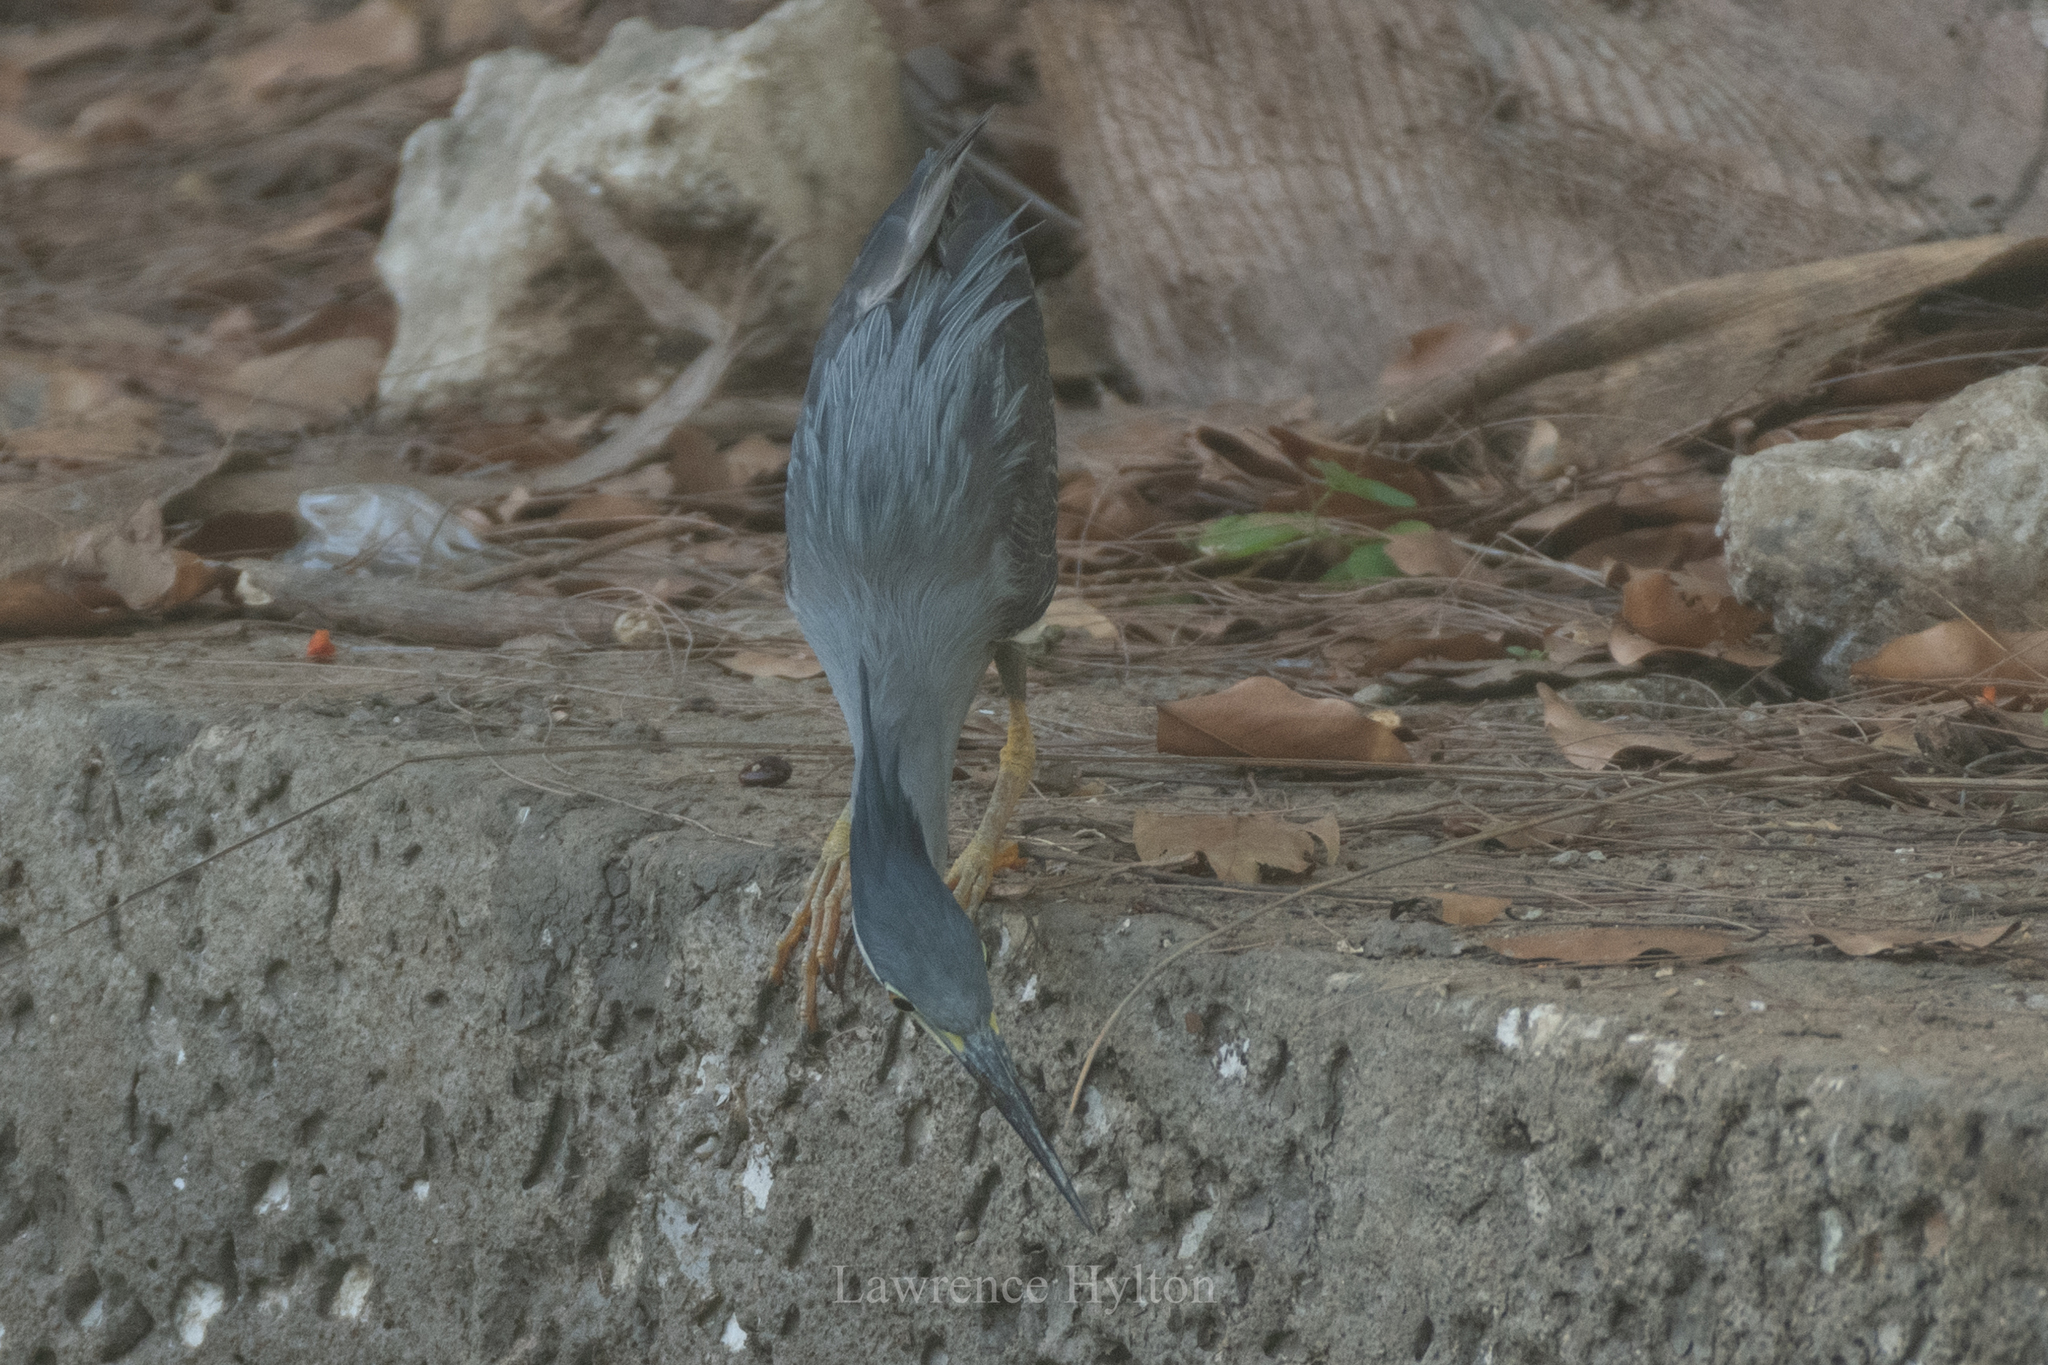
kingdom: Animalia
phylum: Chordata
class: Aves
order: Pelecaniformes
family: Ardeidae
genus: Butorides
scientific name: Butorides striata
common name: Striated heron
